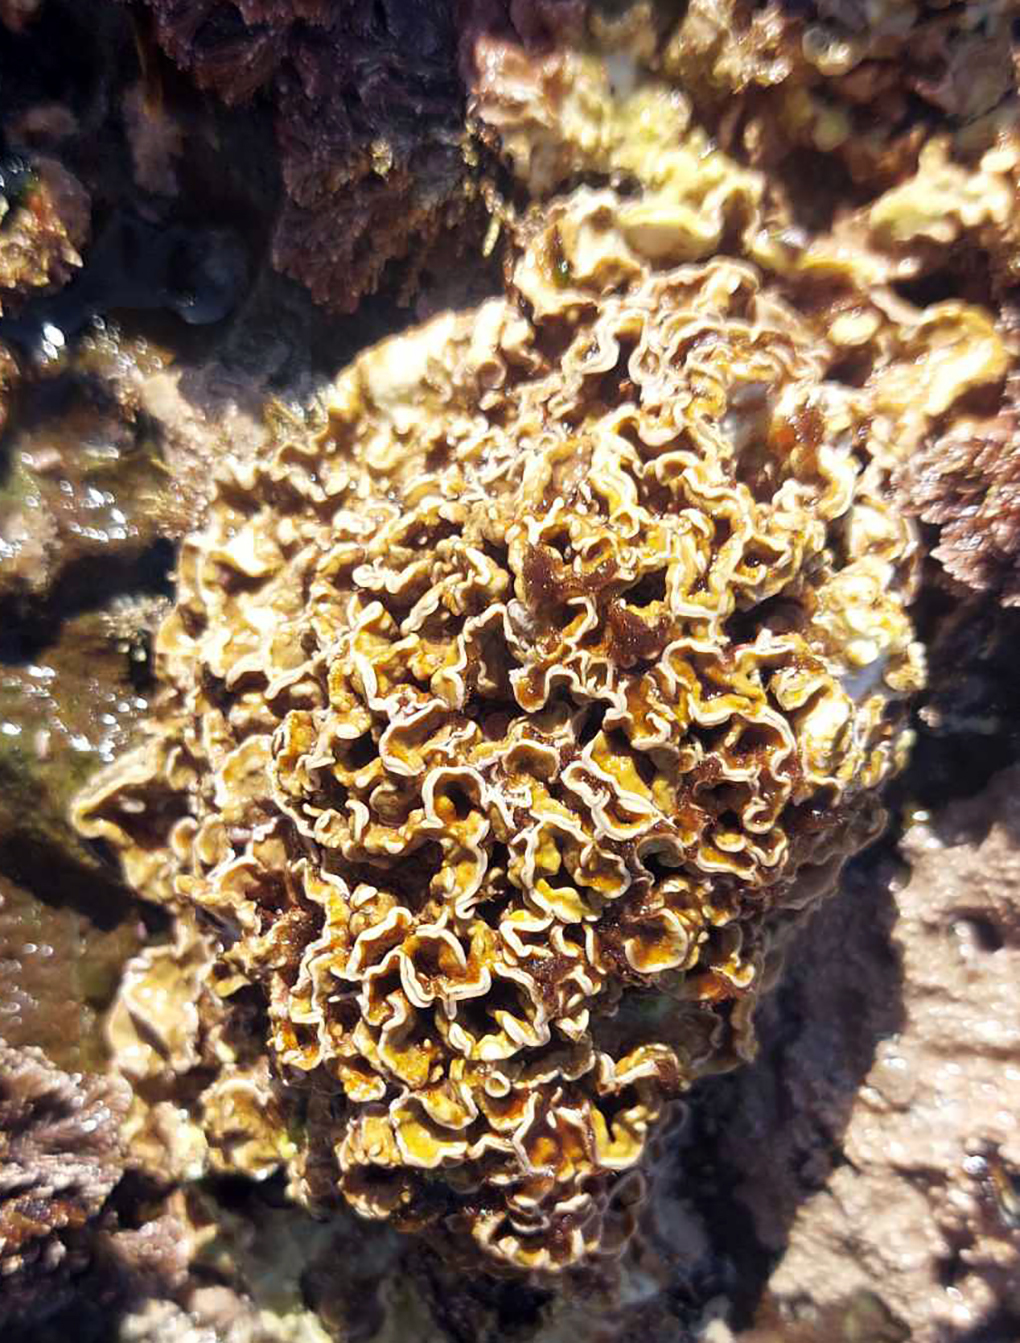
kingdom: Plantae
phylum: Rhodophyta
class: Florideophyceae
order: Corallinales
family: Mesophyllumaceae
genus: Mesophyllum
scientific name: Mesophyllum engelhartii
